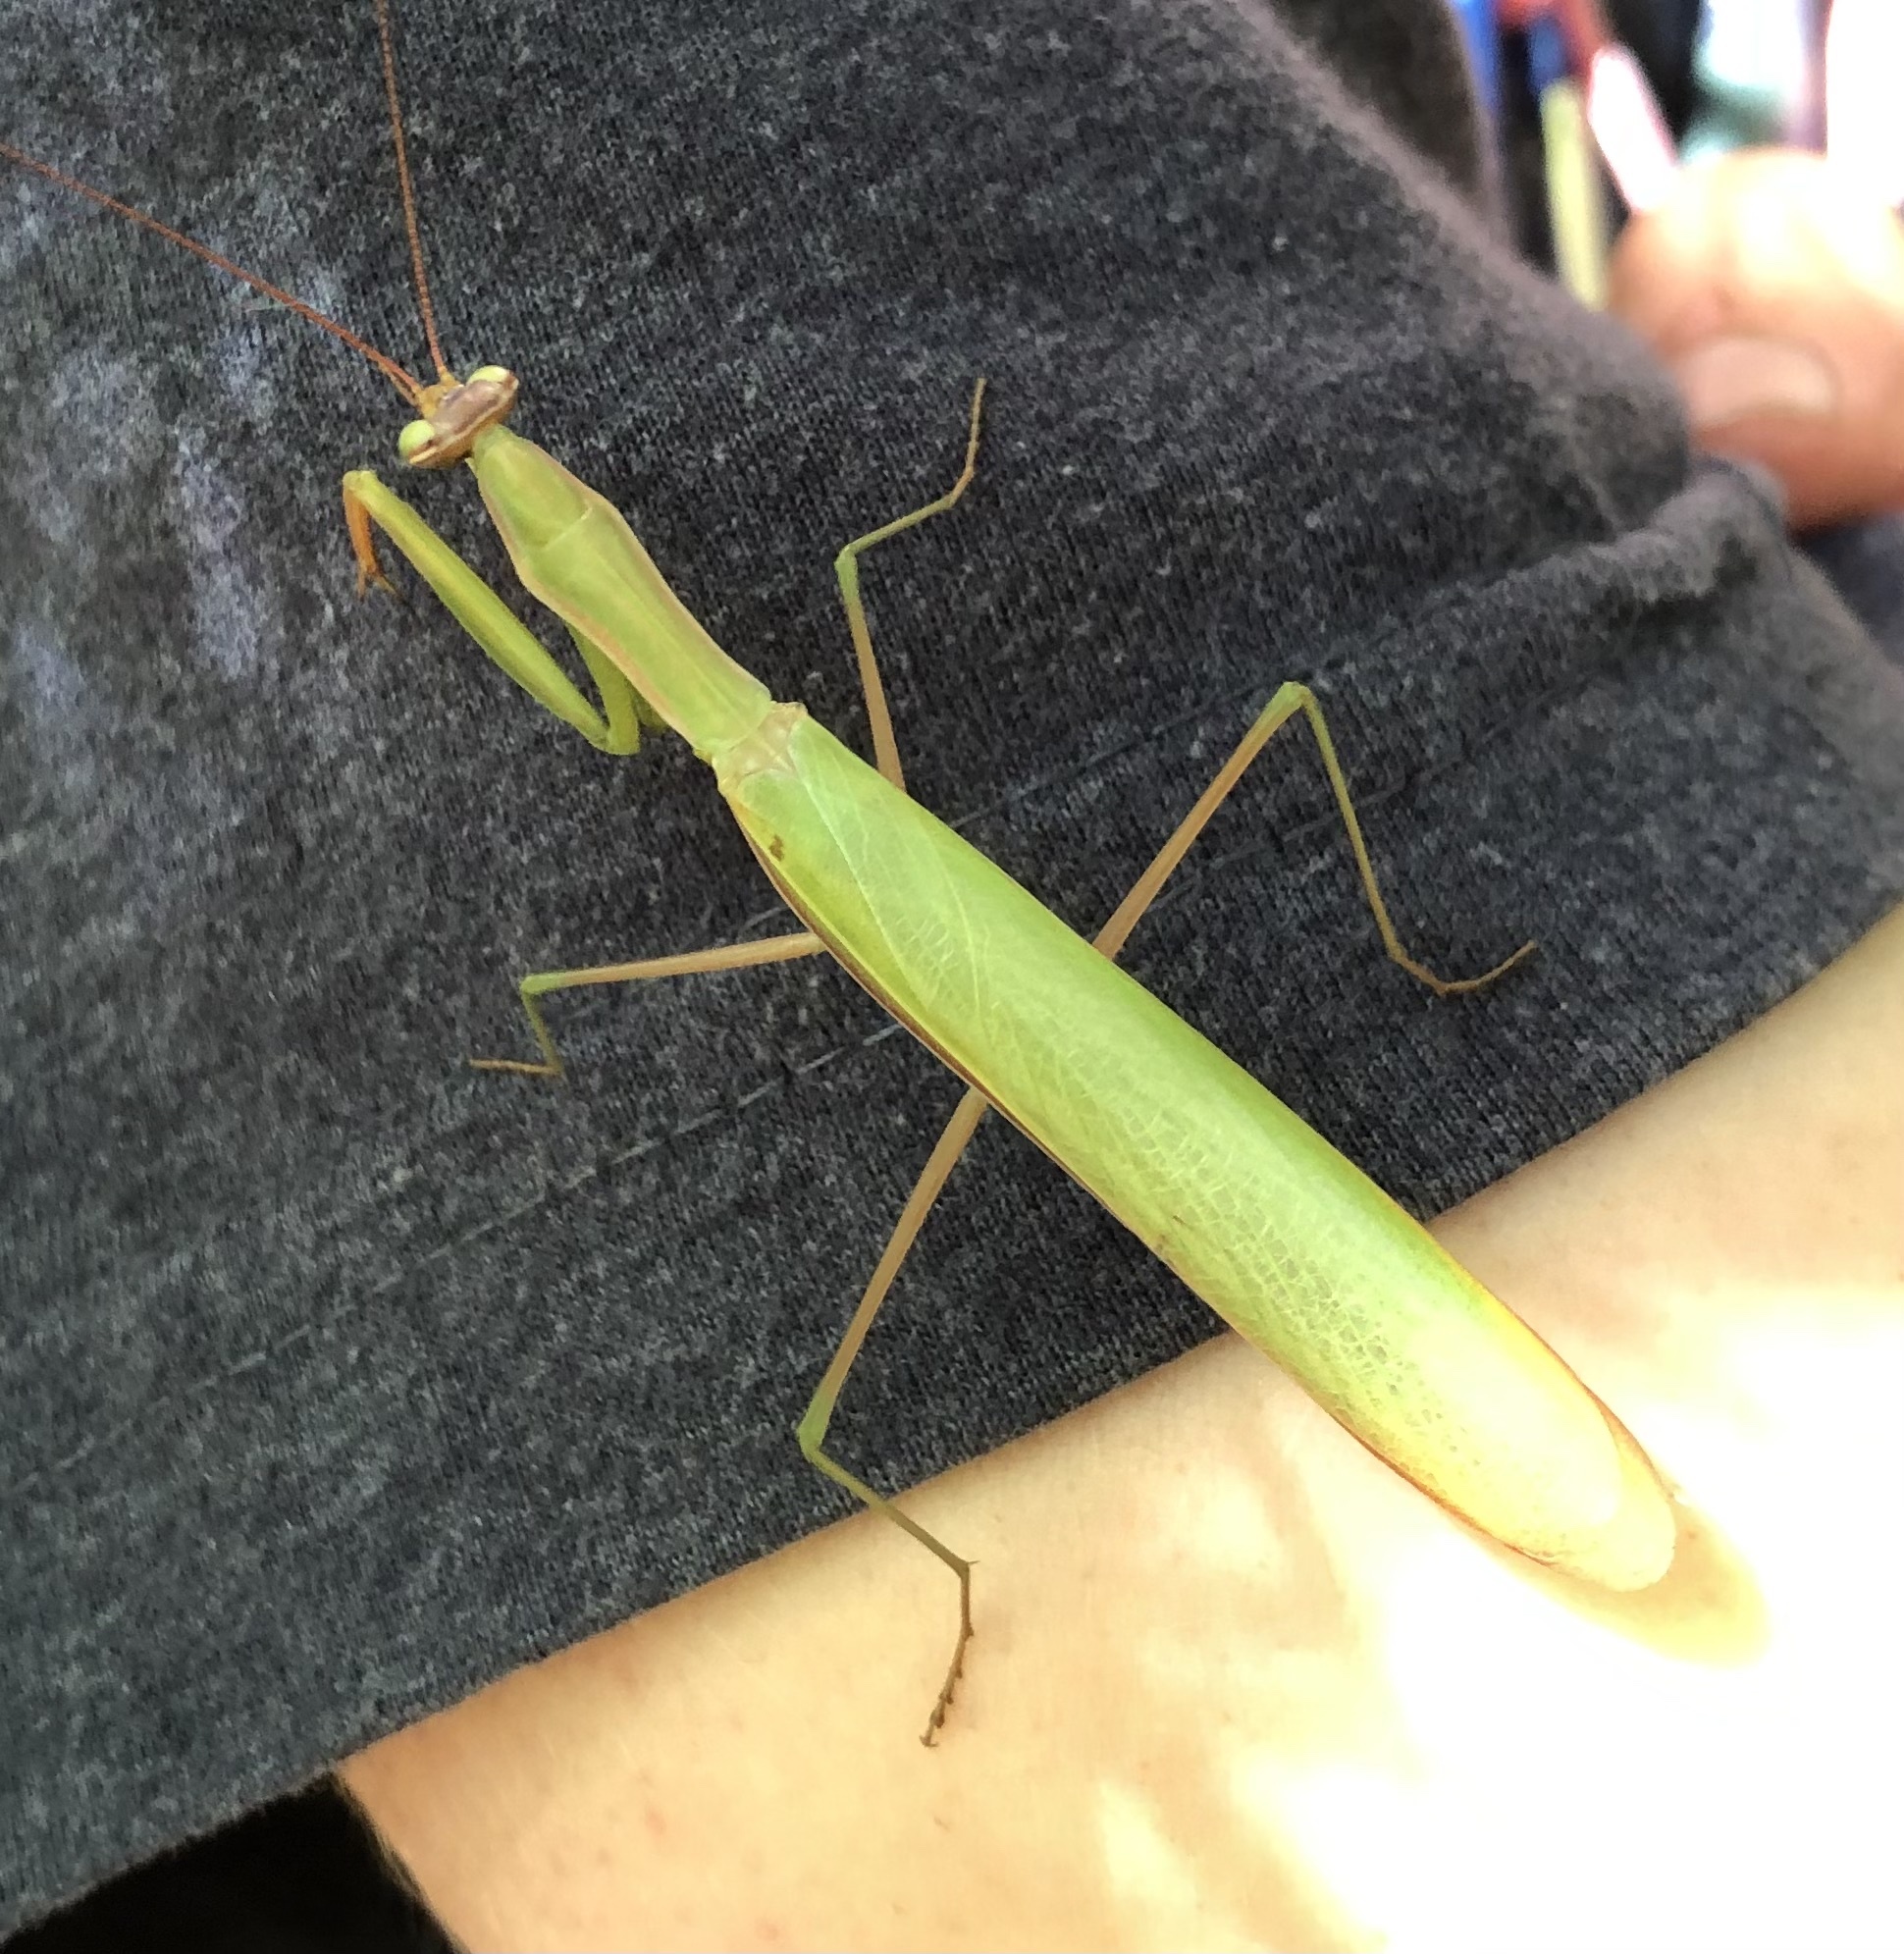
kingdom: Animalia
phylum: Arthropoda
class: Insecta
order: Mantodea
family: Mantidae
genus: Mantis
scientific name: Mantis religiosa
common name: Praying mantis
